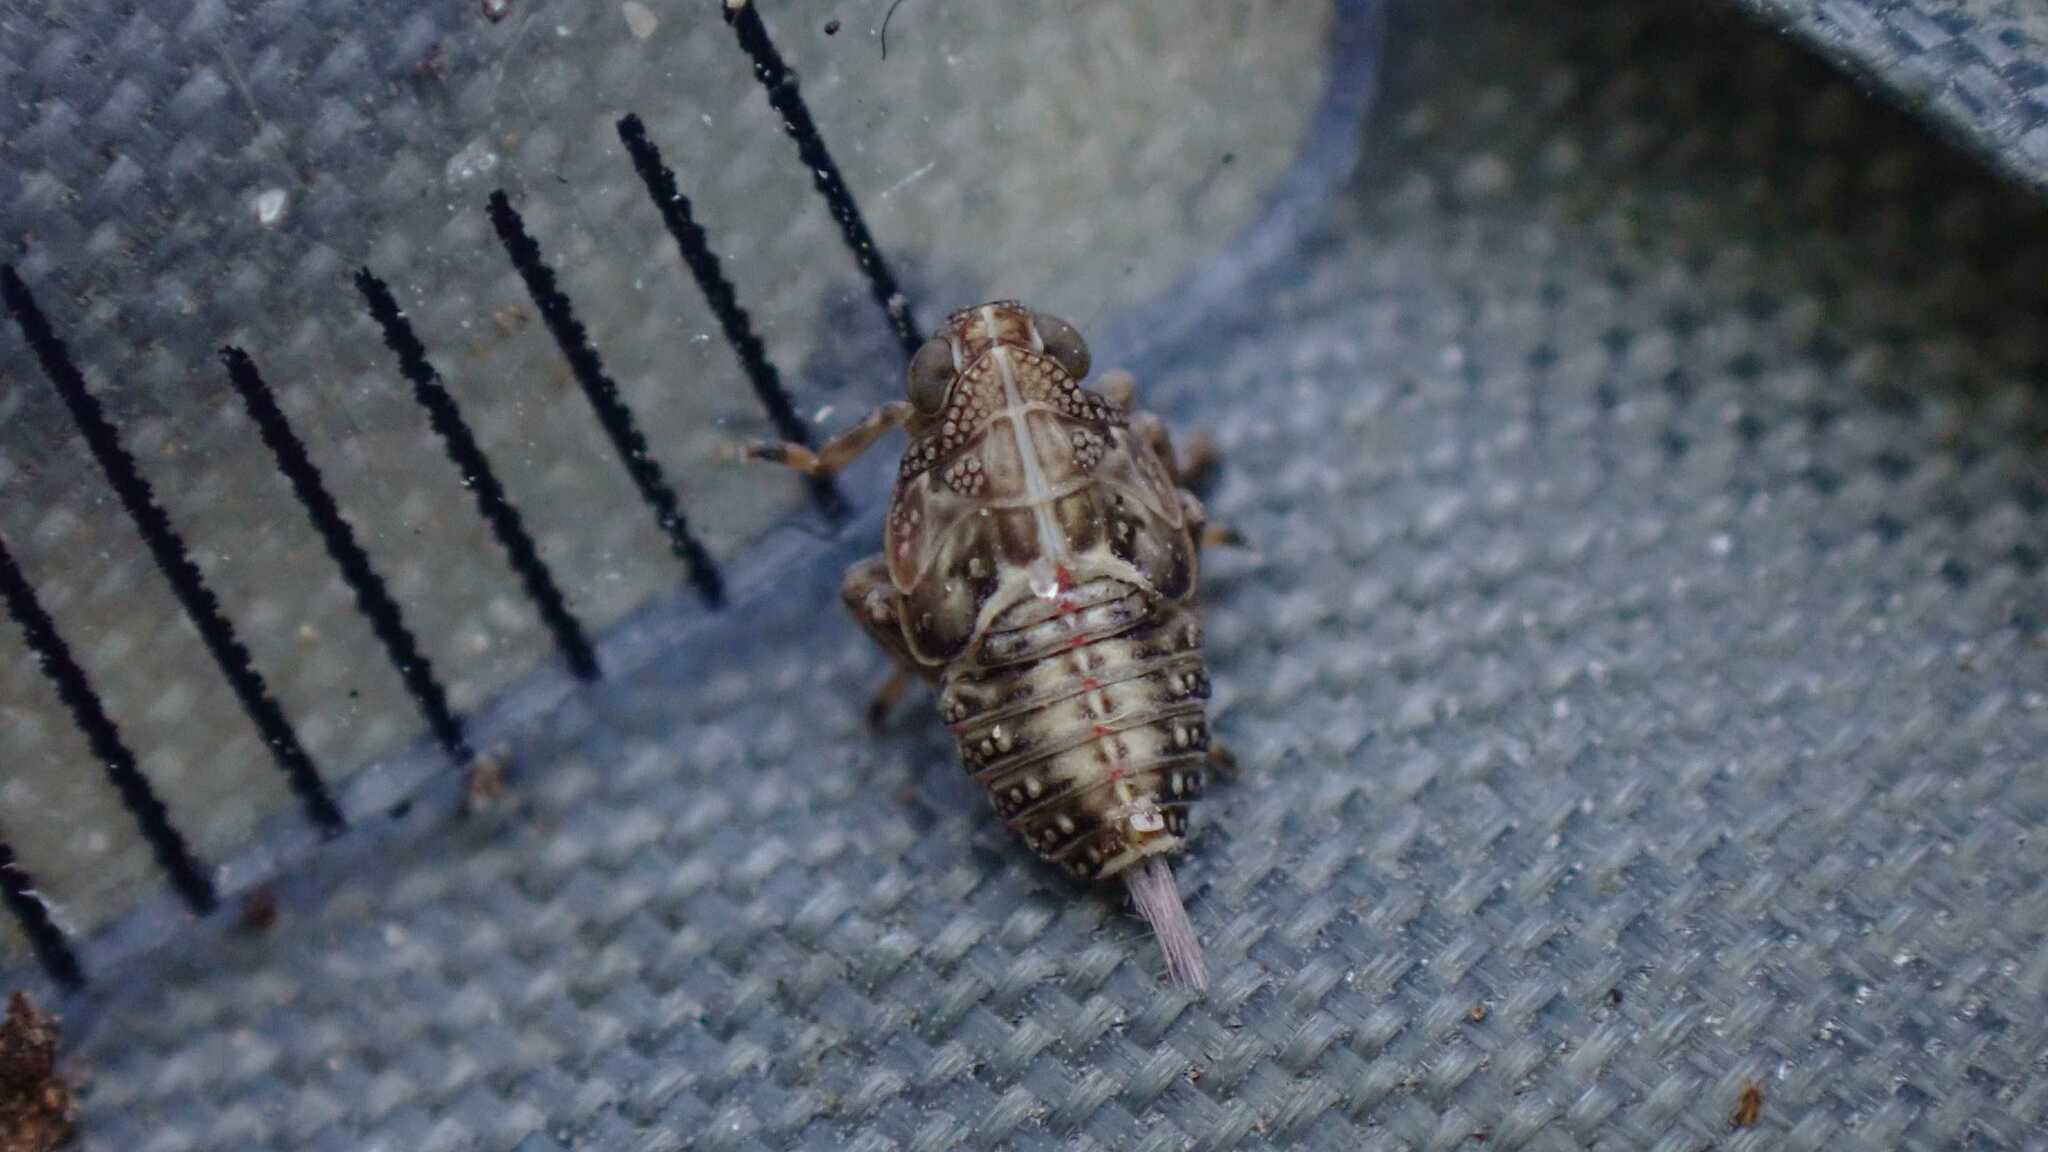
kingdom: Animalia
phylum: Arthropoda
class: Insecta
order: Hemiptera
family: Issidae
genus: Issus
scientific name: Issus coleoptratus
